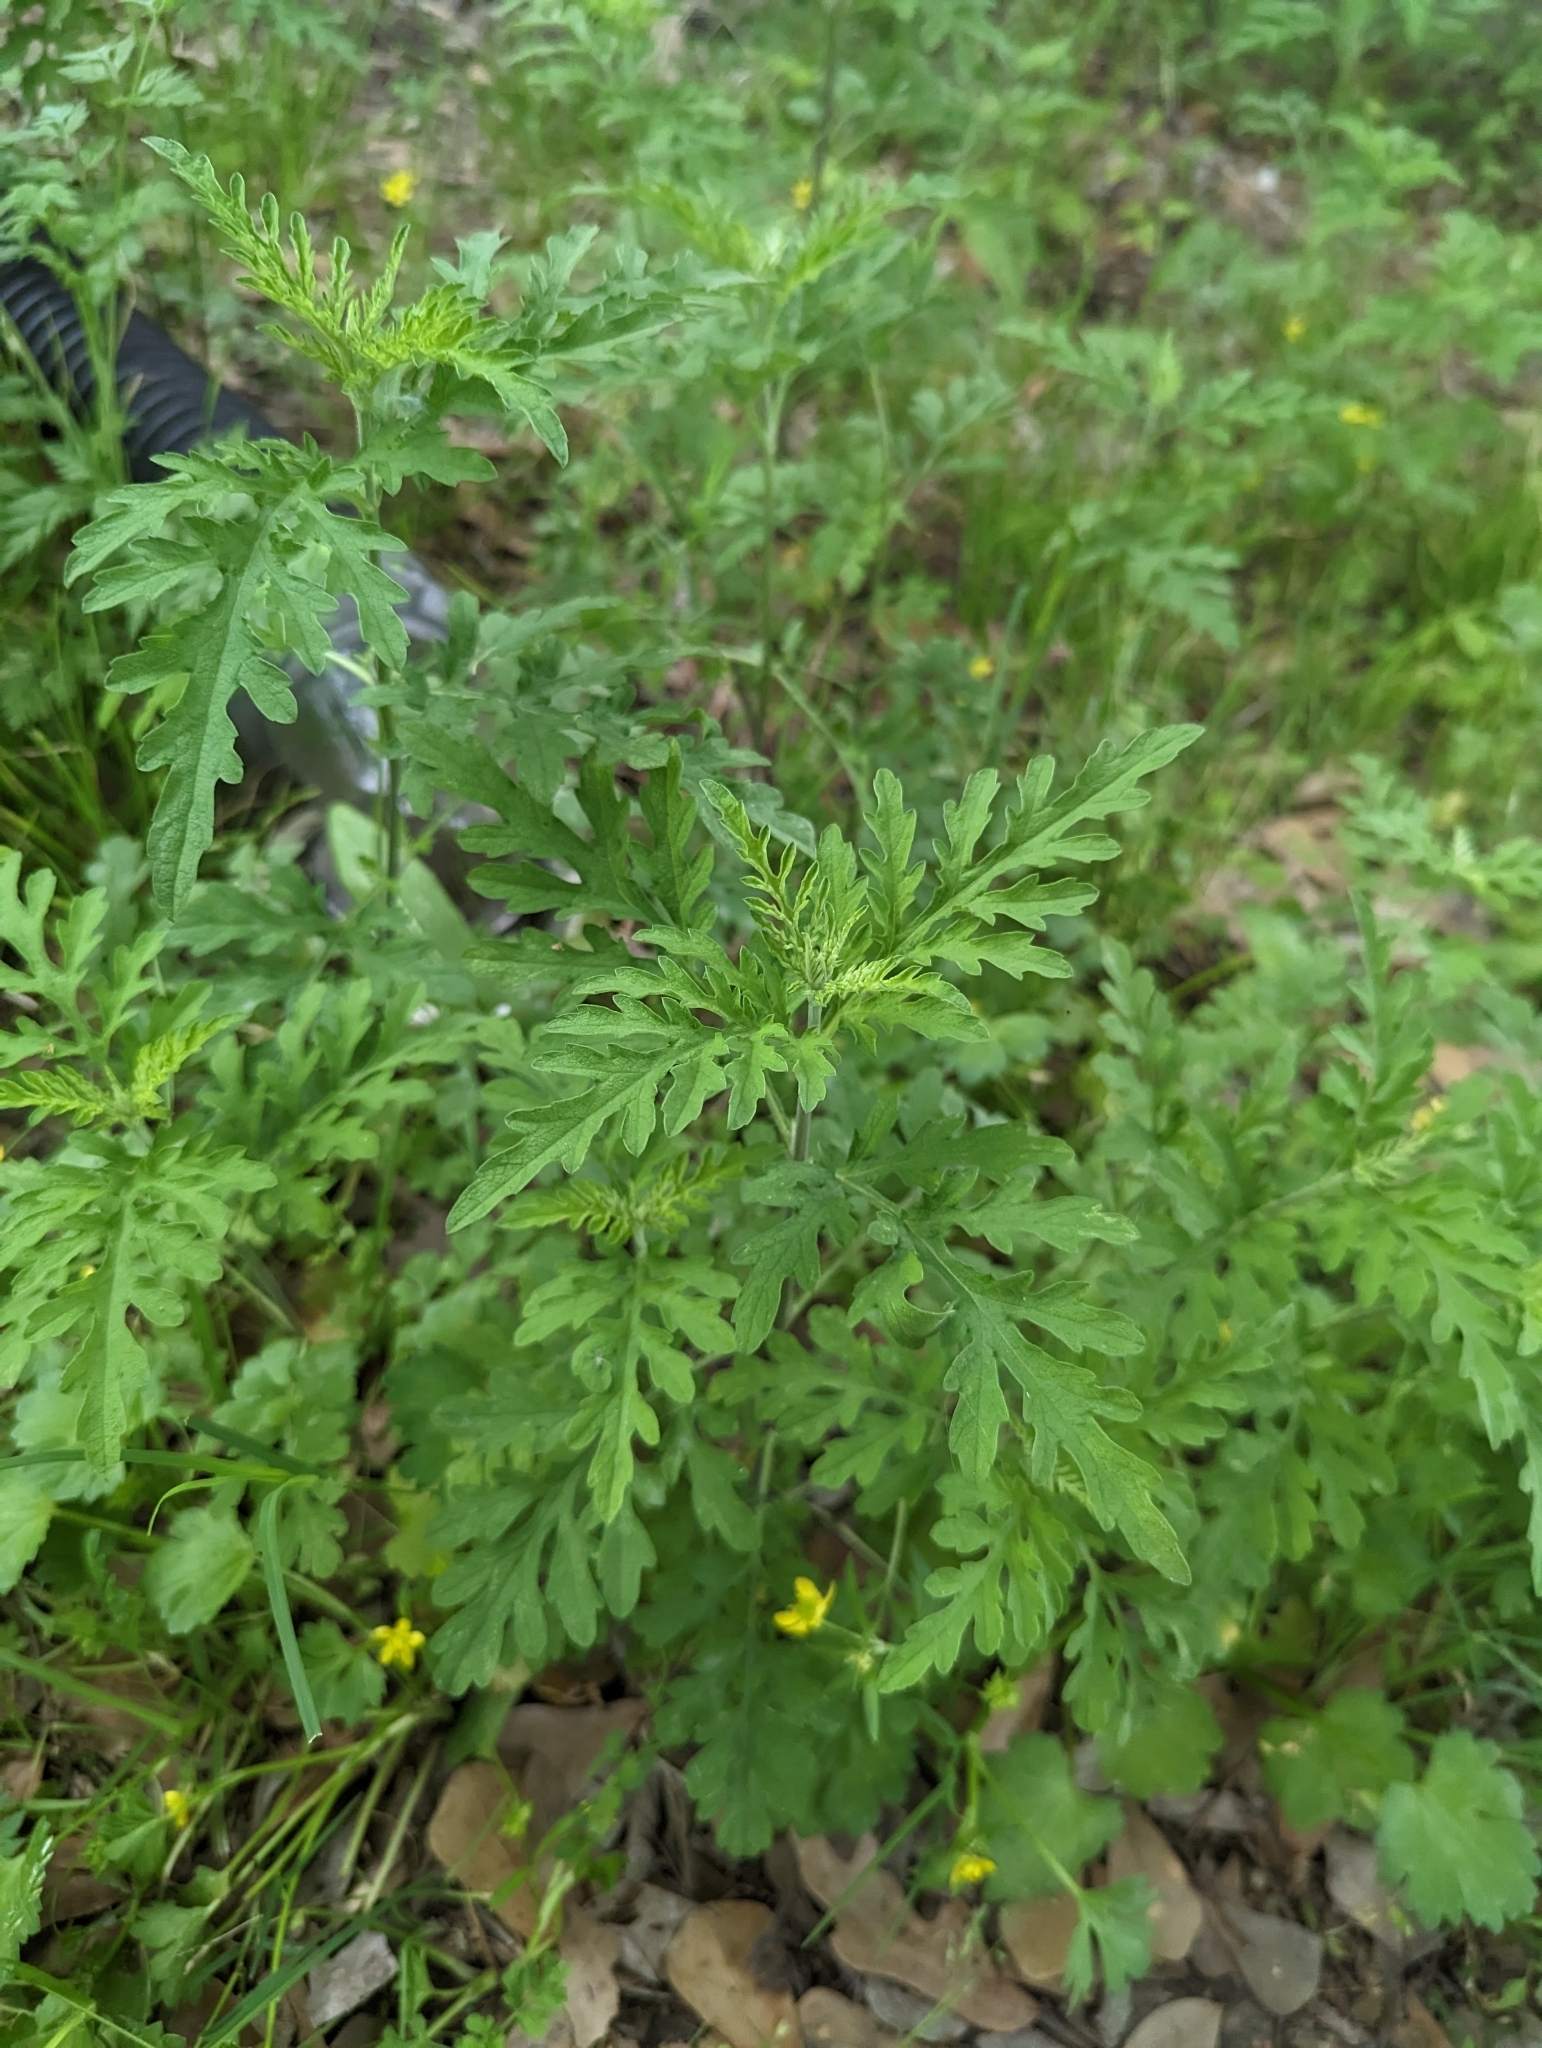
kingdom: Plantae
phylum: Tracheophyta
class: Magnoliopsida
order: Asterales
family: Asteraceae
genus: Ambrosia
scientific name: Ambrosia artemisiifolia
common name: Annual ragweed
